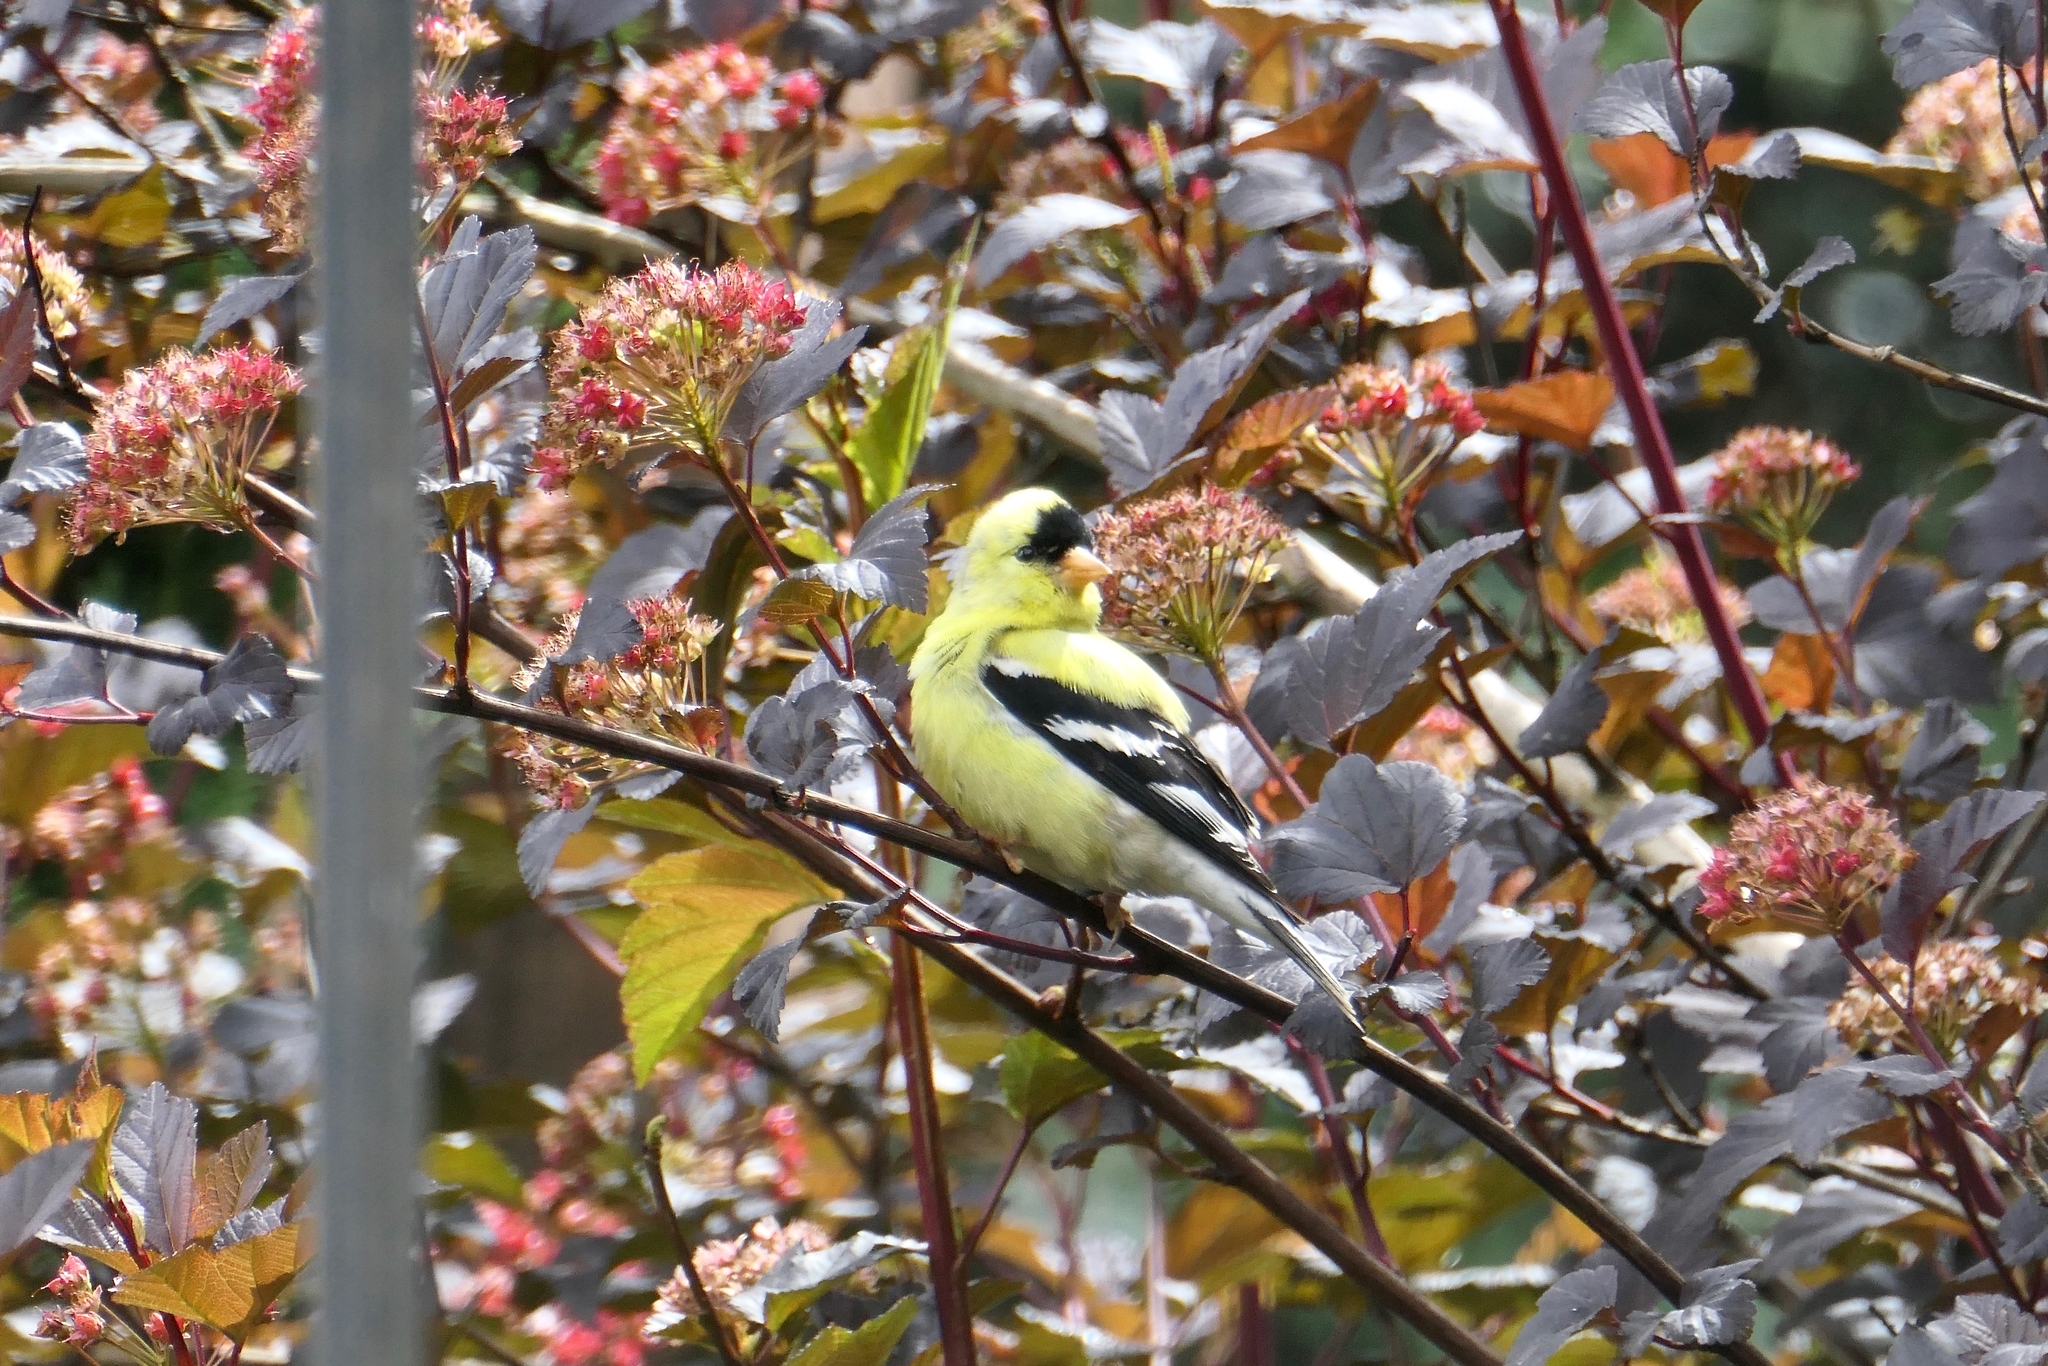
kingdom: Animalia
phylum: Chordata
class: Aves
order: Passeriformes
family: Fringillidae
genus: Spinus
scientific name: Spinus tristis
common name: American goldfinch
